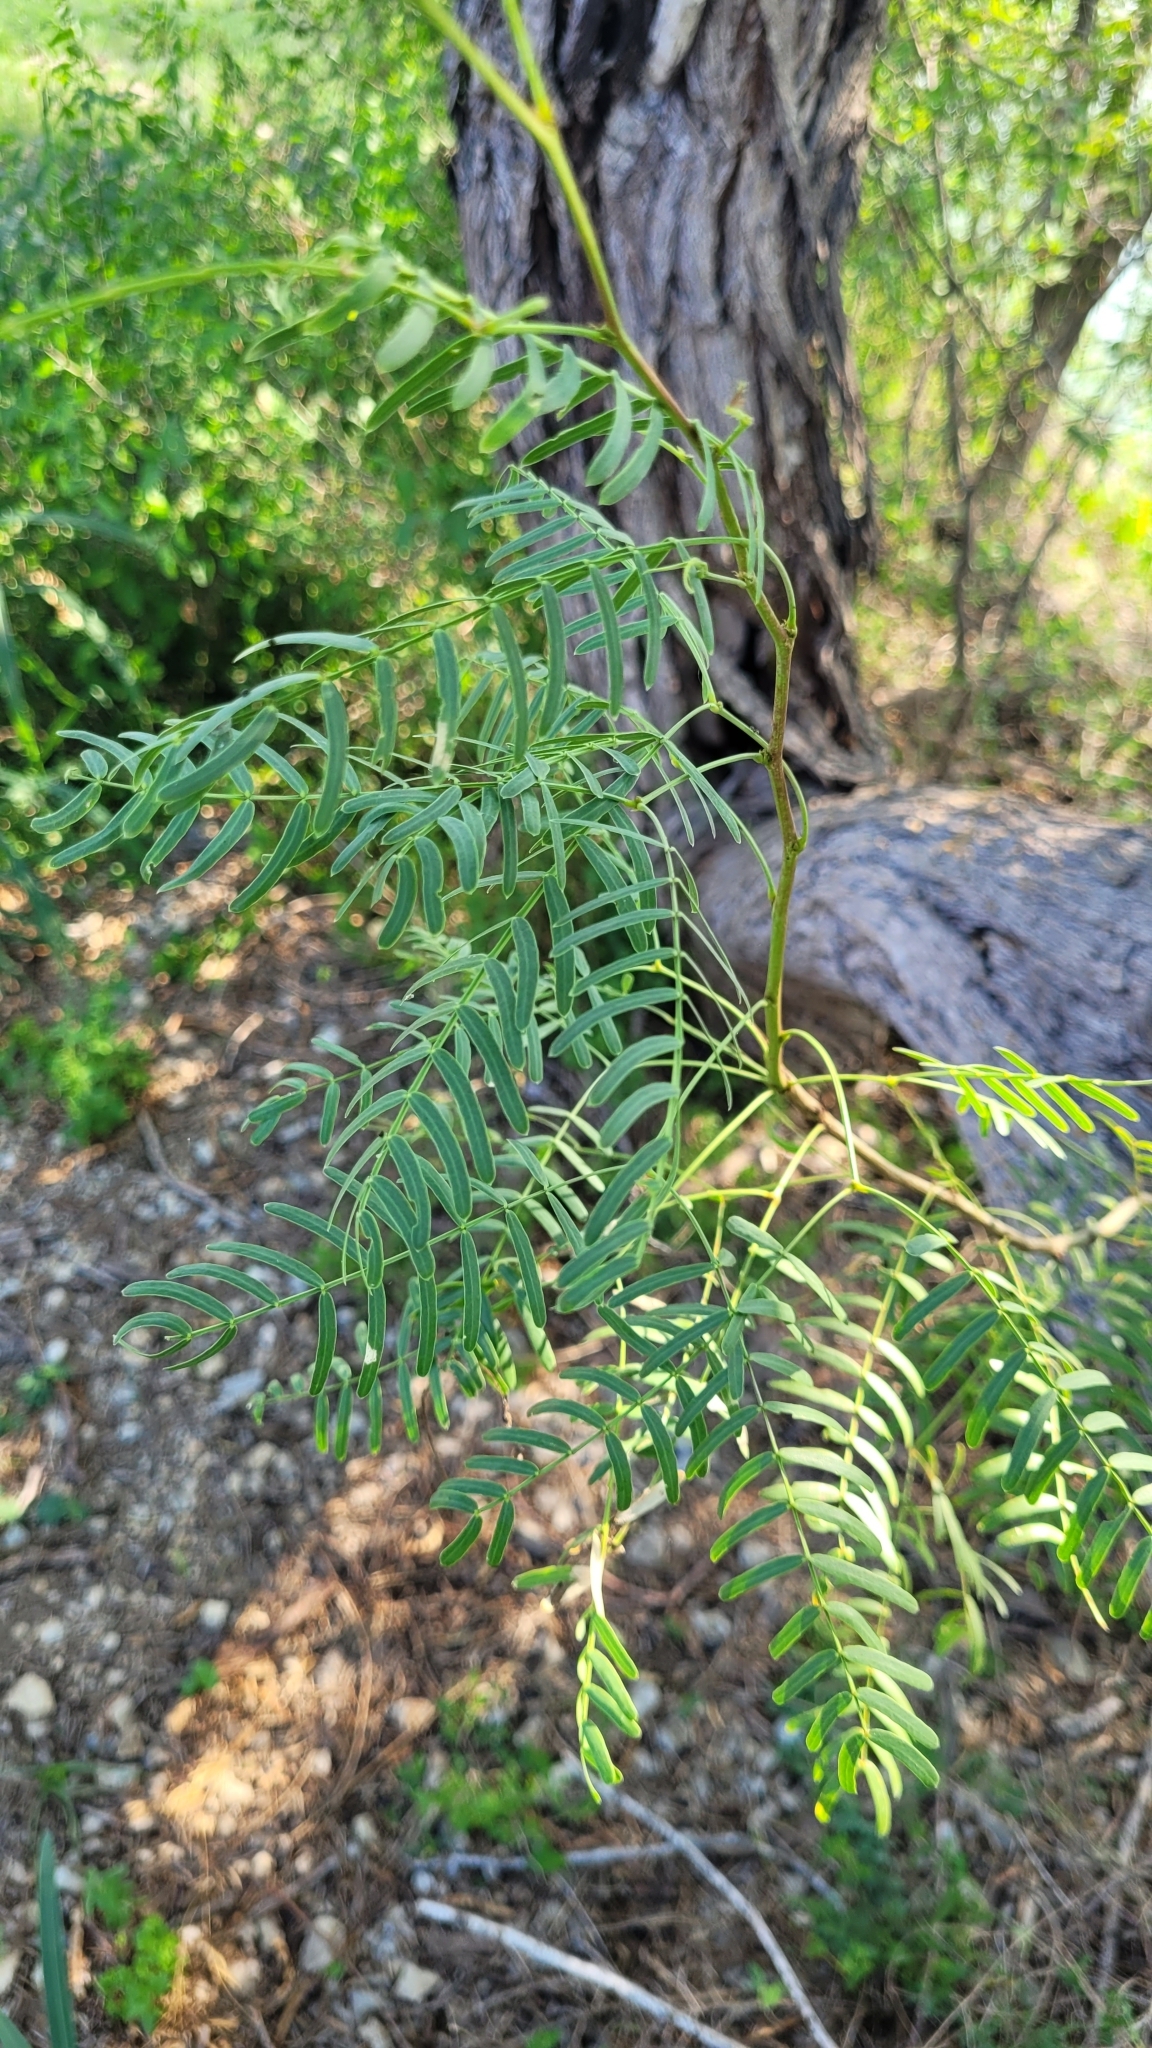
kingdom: Plantae
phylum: Tracheophyta
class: Magnoliopsida
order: Fabales
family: Fabaceae
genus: Prosopis
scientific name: Prosopis glandulosa
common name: Honey mesquite
